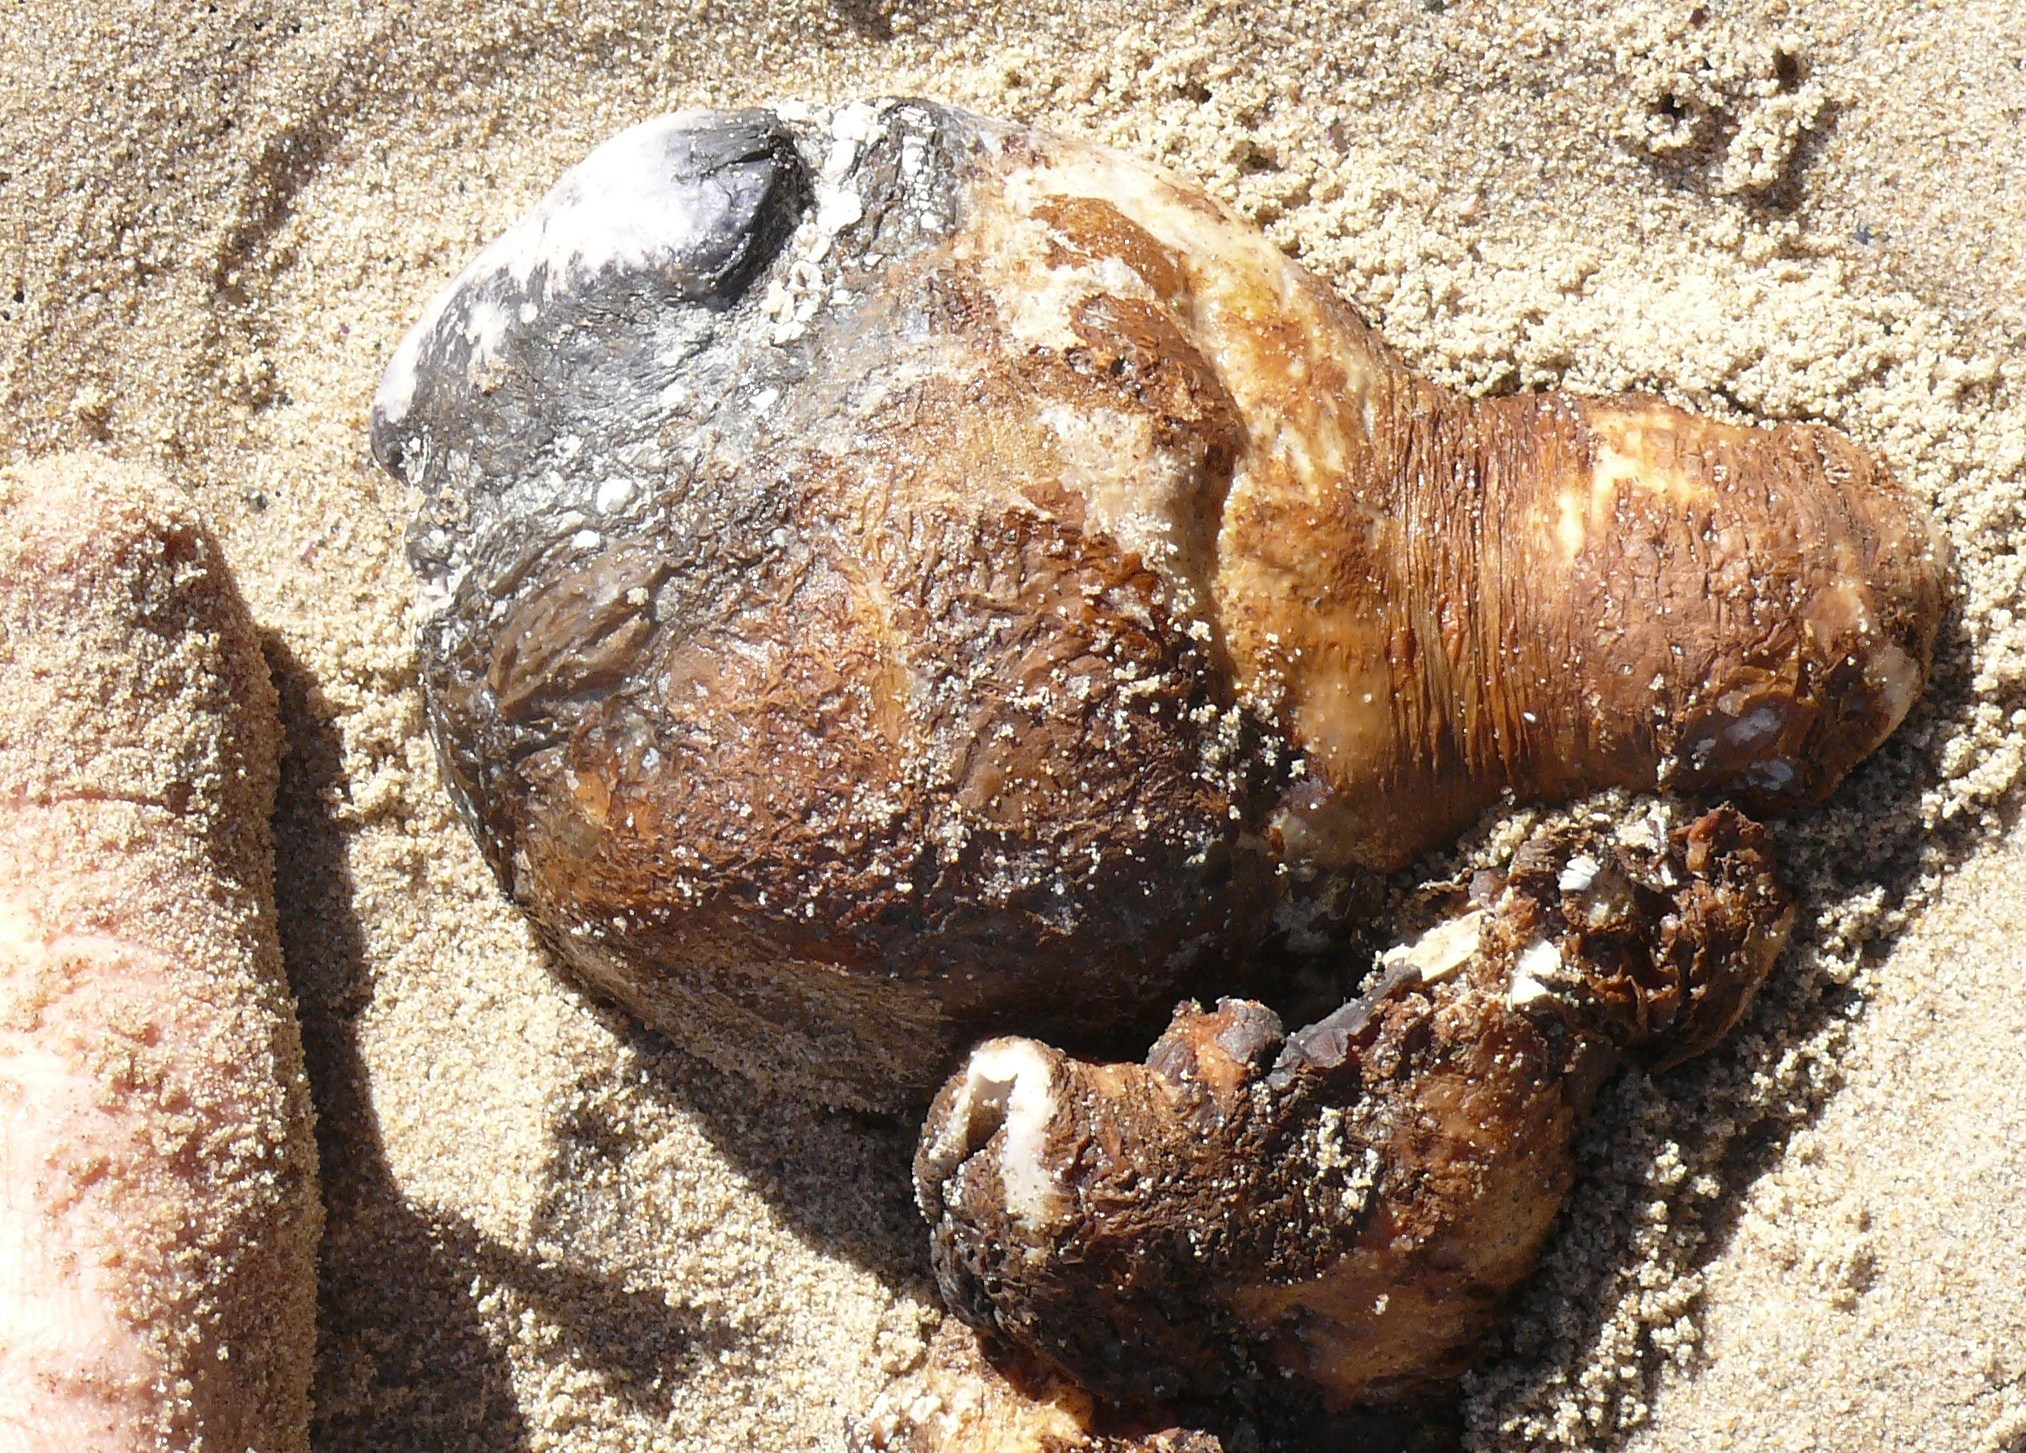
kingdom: Animalia
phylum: Chordata
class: Ascidiacea
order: Stolidobranchia
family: Pyuridae
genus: Pyura
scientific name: Pyura stolonifera
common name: Red bait
